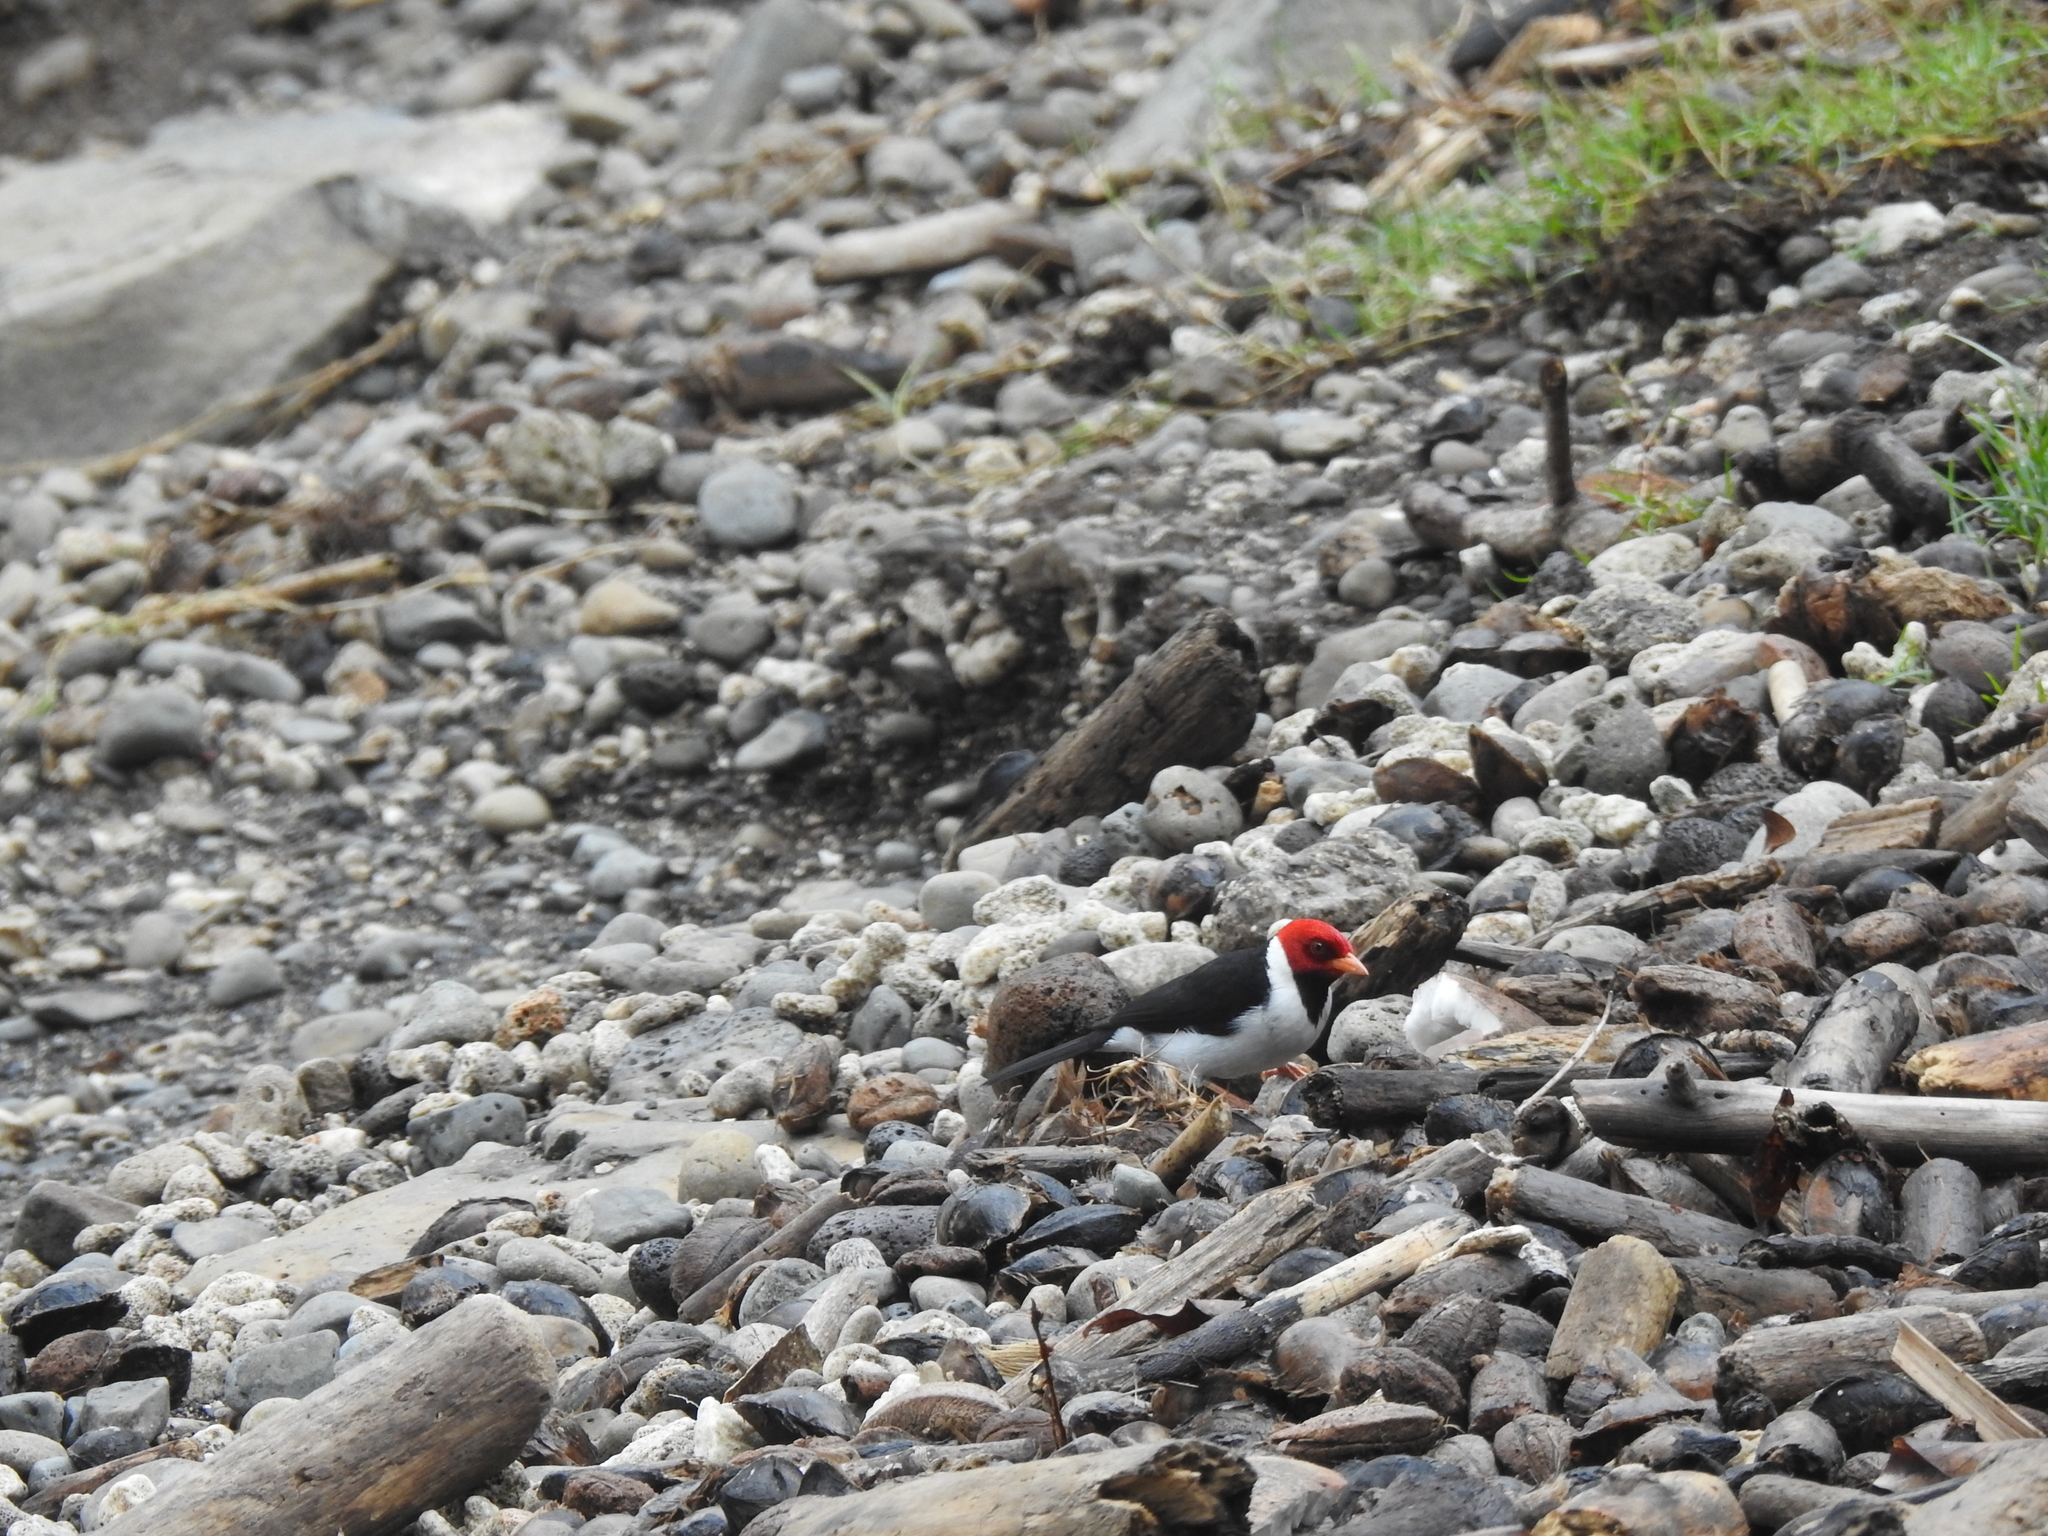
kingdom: Animalia
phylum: Chordata
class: Aves
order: Passeriformes
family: Thraupidae
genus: Paroaria
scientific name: Paroaria capitata
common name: Yellow-billed cardinal
